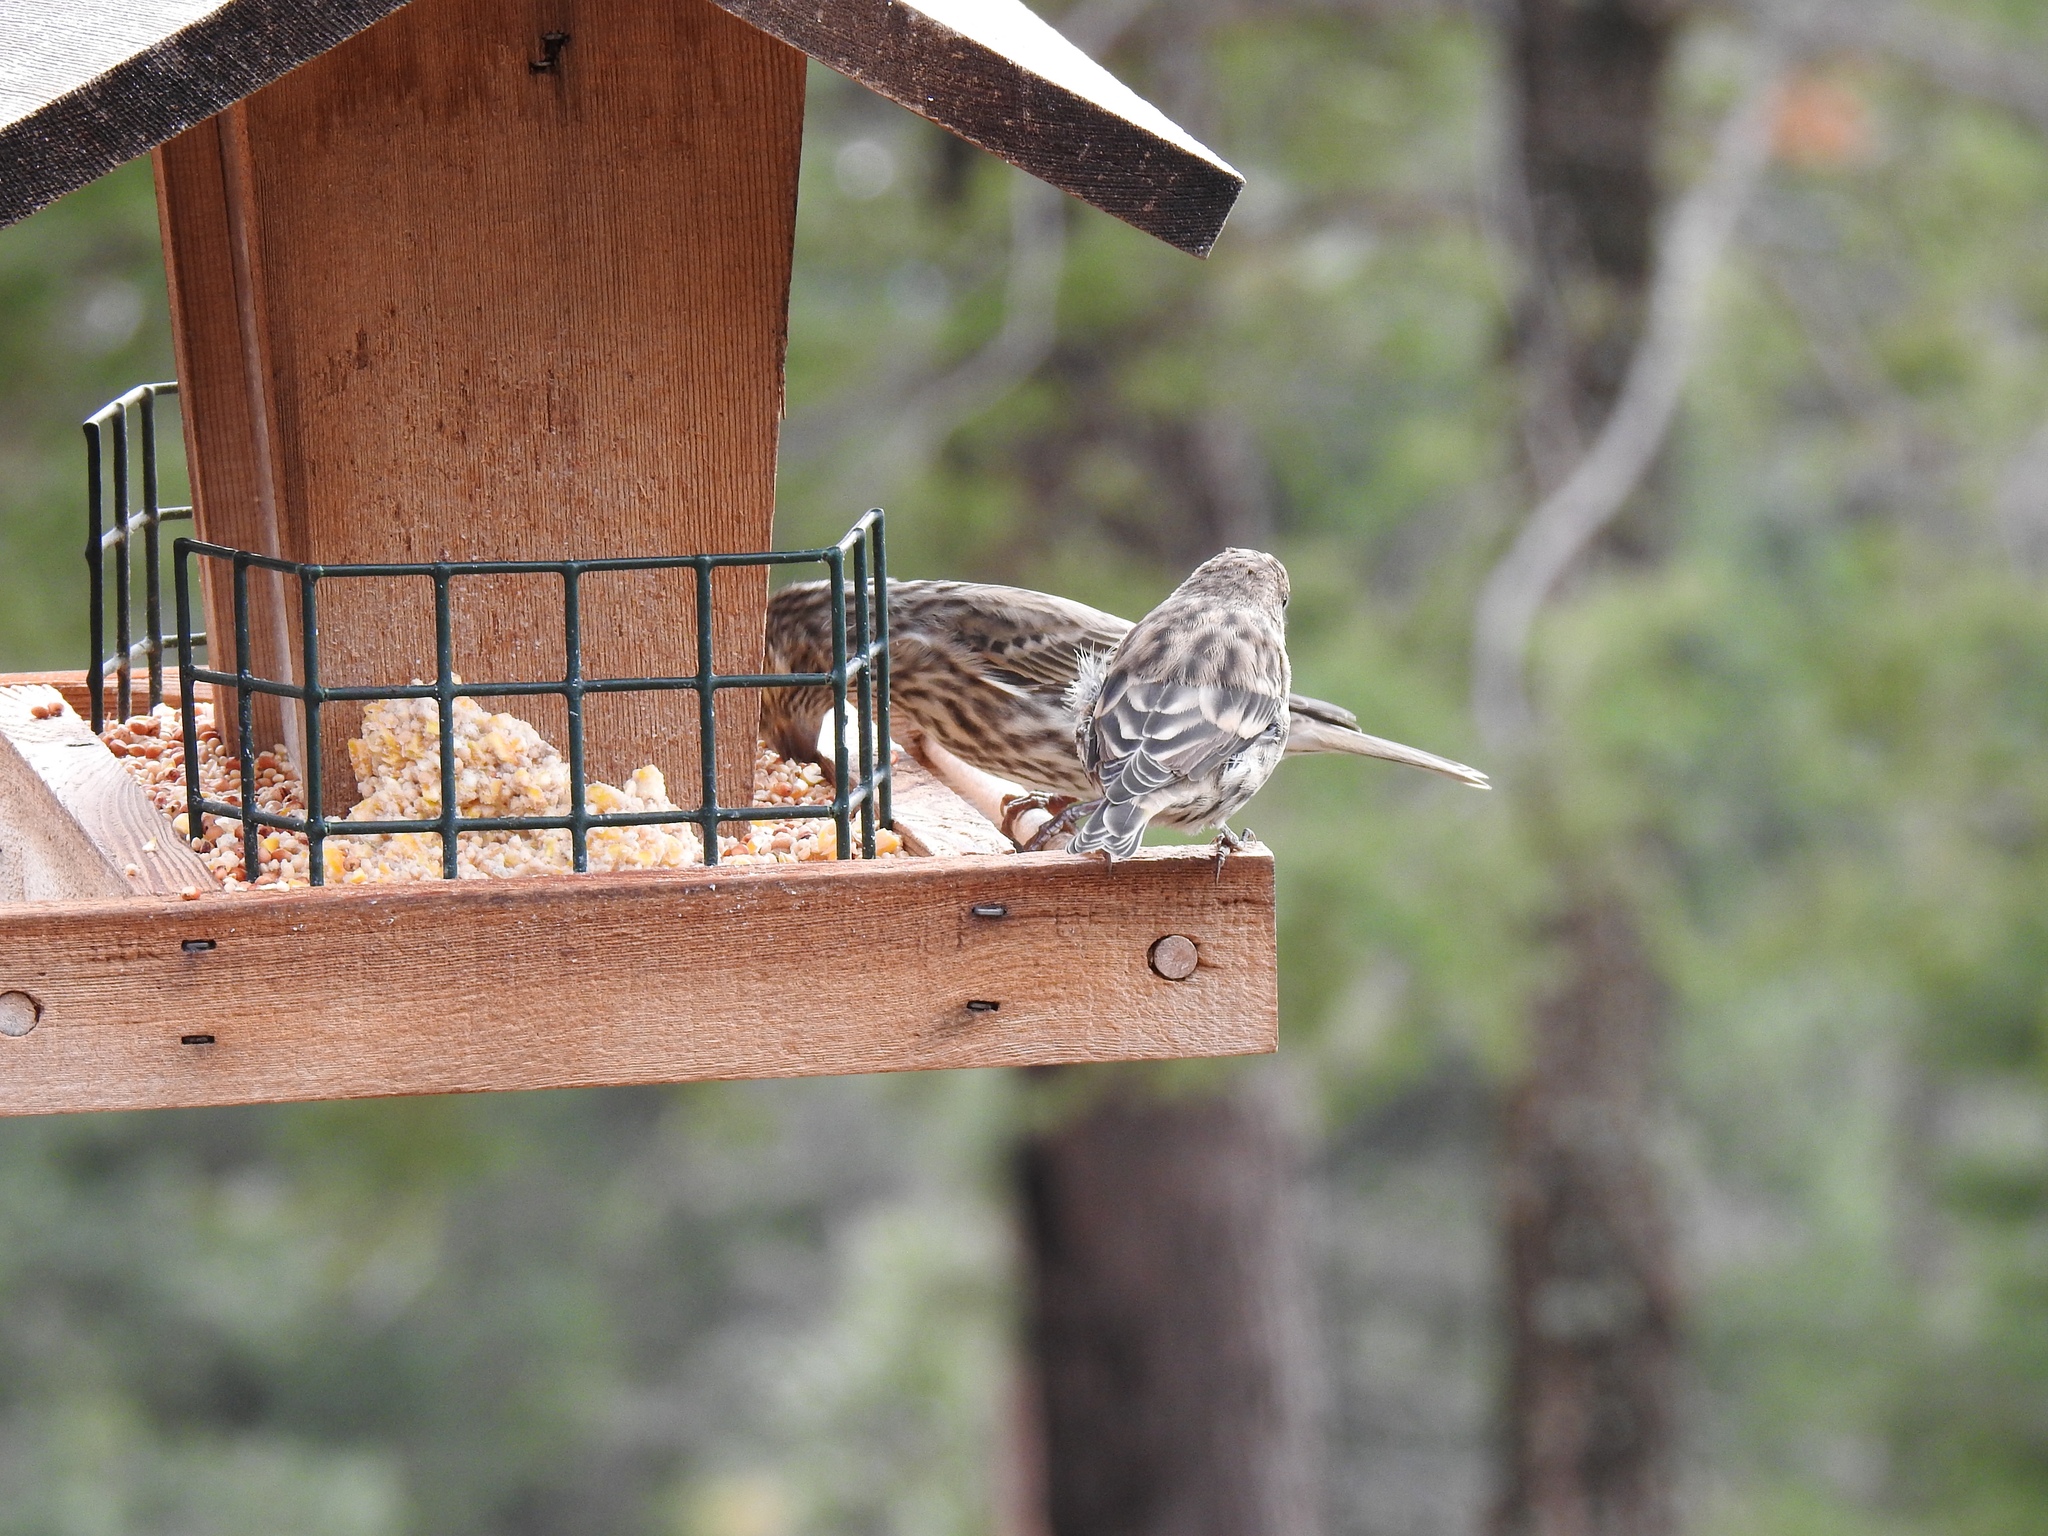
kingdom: Animalia
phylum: Chordata
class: Aves
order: Passeriformes
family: Fringillidae
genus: Spinus
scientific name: Spinus pinus
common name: Pine siskin
